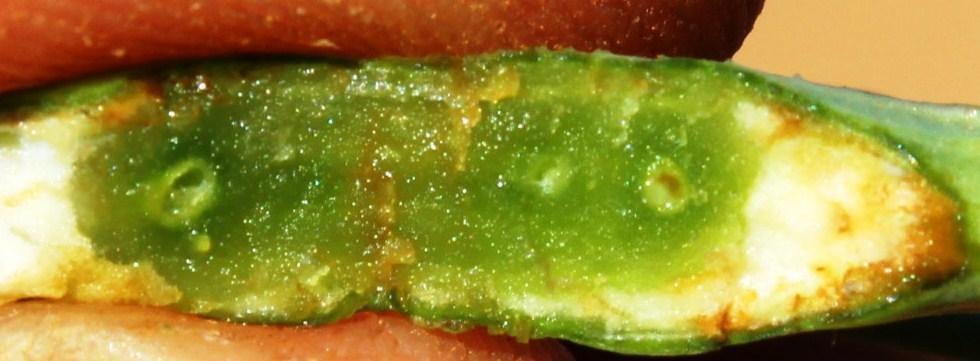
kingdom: Animalia
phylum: Arthropoda
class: Insecta
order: Hymenoptera
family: Cynipidae
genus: Phanacis
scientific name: Phanacis hypochoeridis
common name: Gall wasp
